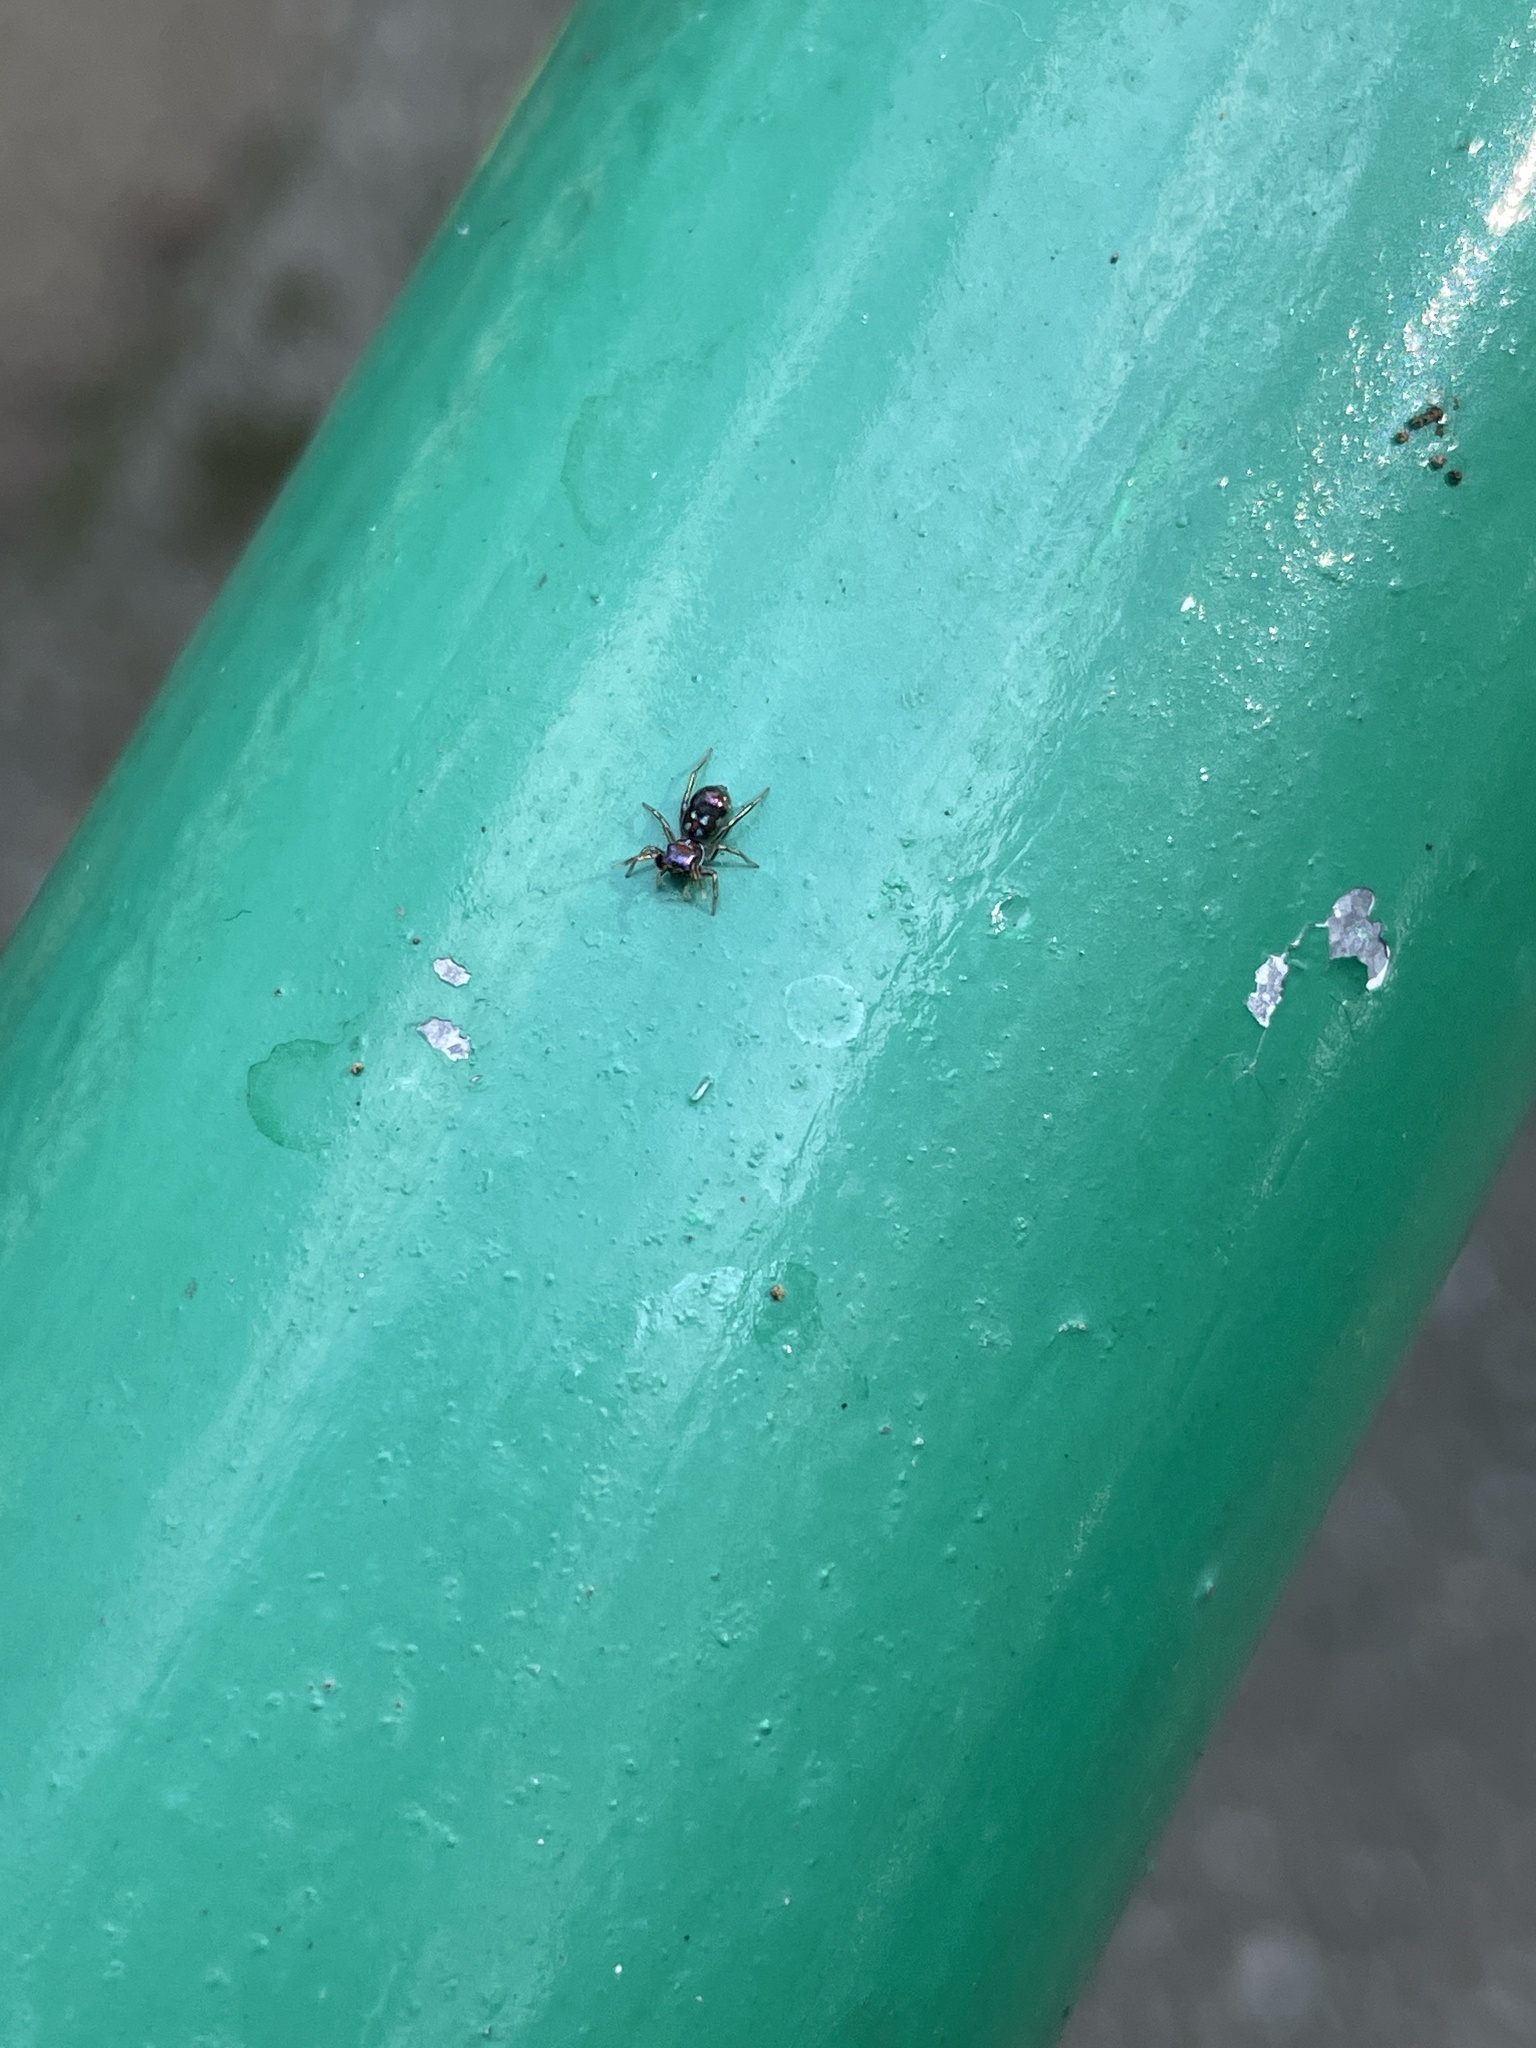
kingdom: Animalia
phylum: Arthropoda
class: Arachnida
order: Araneae
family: Salticidae
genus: Siler
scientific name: Siler collingwoodi
